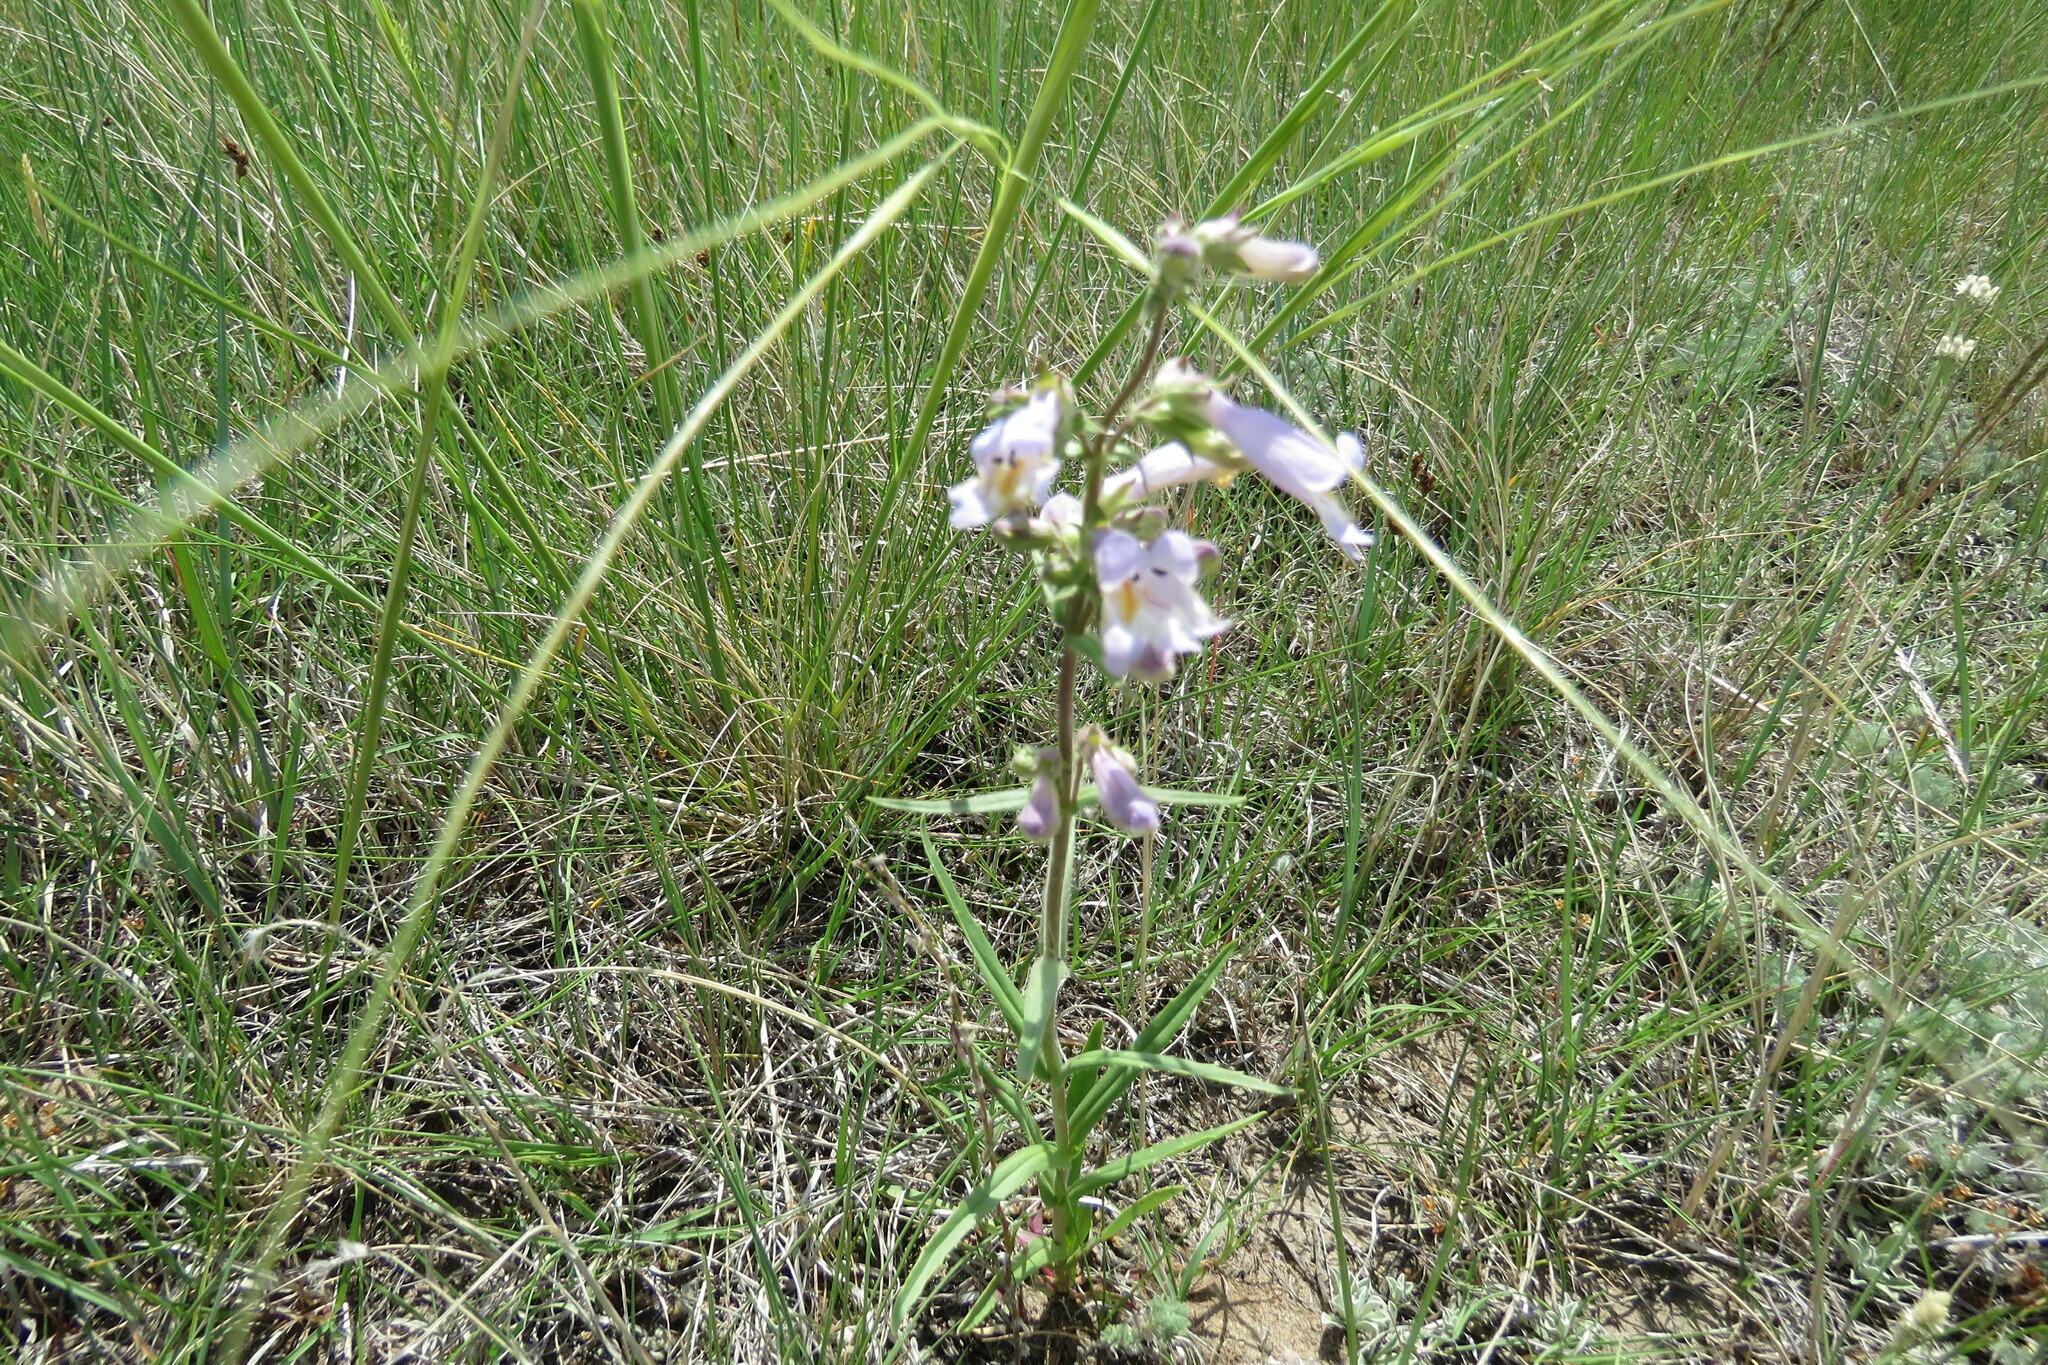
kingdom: Plantae
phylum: Tracheophyta
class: Magnoliopsida
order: Lamiales
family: Plantaginaceae
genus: Penstemon
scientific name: Penstemon gracilis
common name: Slender beardtongue
